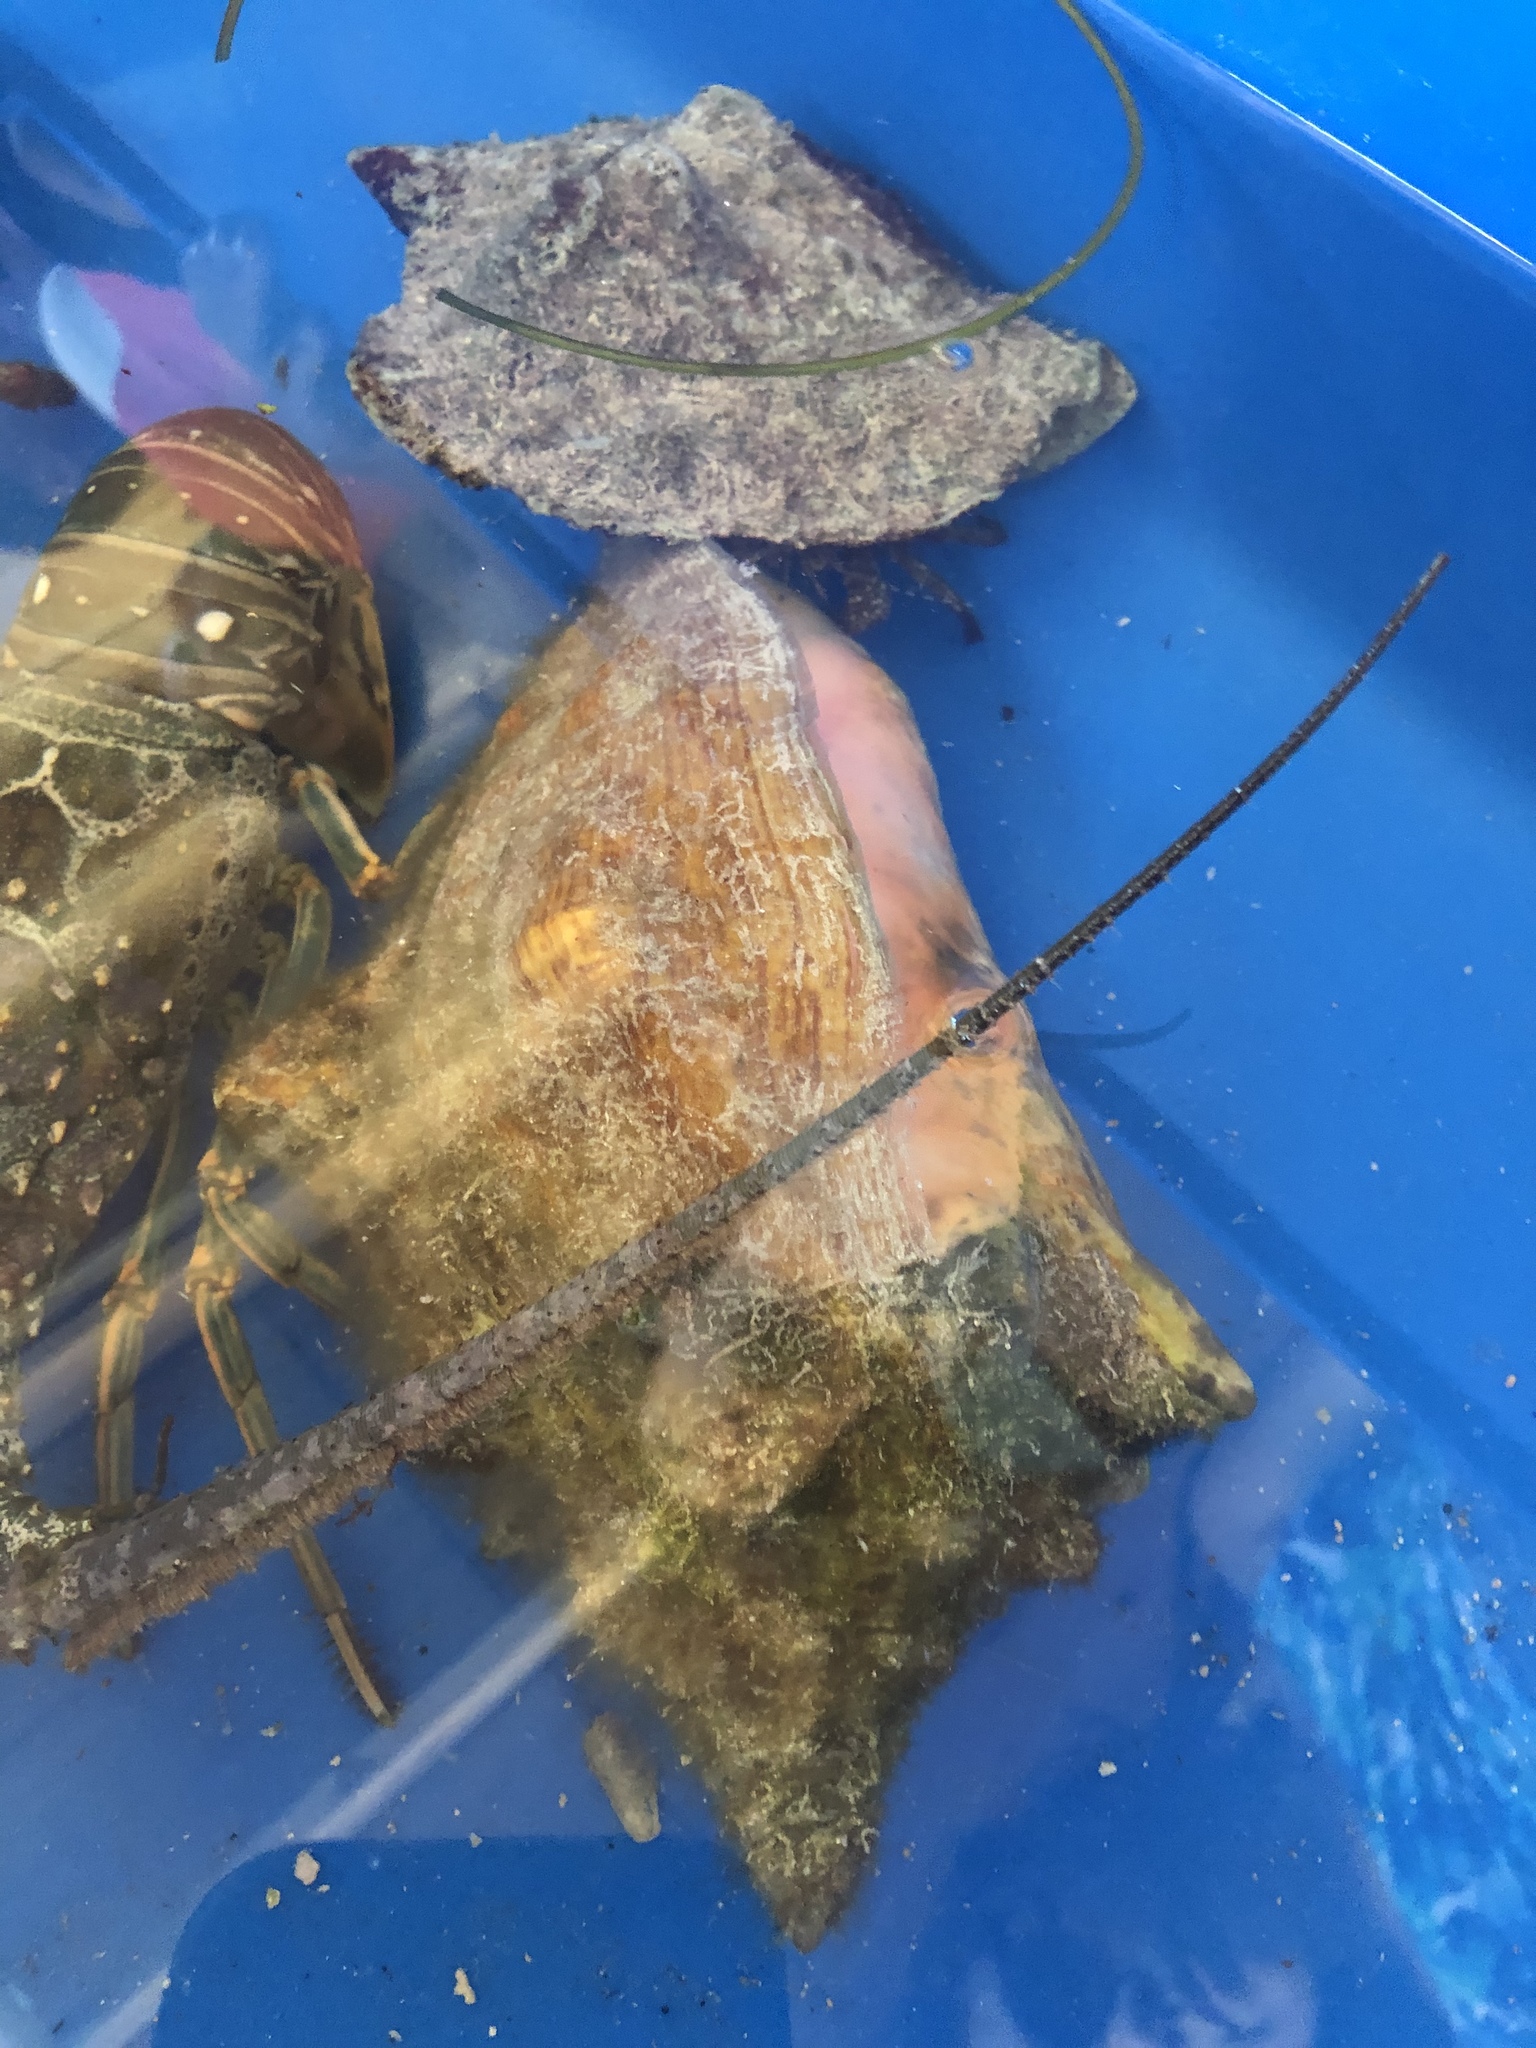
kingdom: Animalia
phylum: Mollusca
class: Gastropoda
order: Littorinimorpha
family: Strombidae
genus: Aliger
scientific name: Aliger gigas
